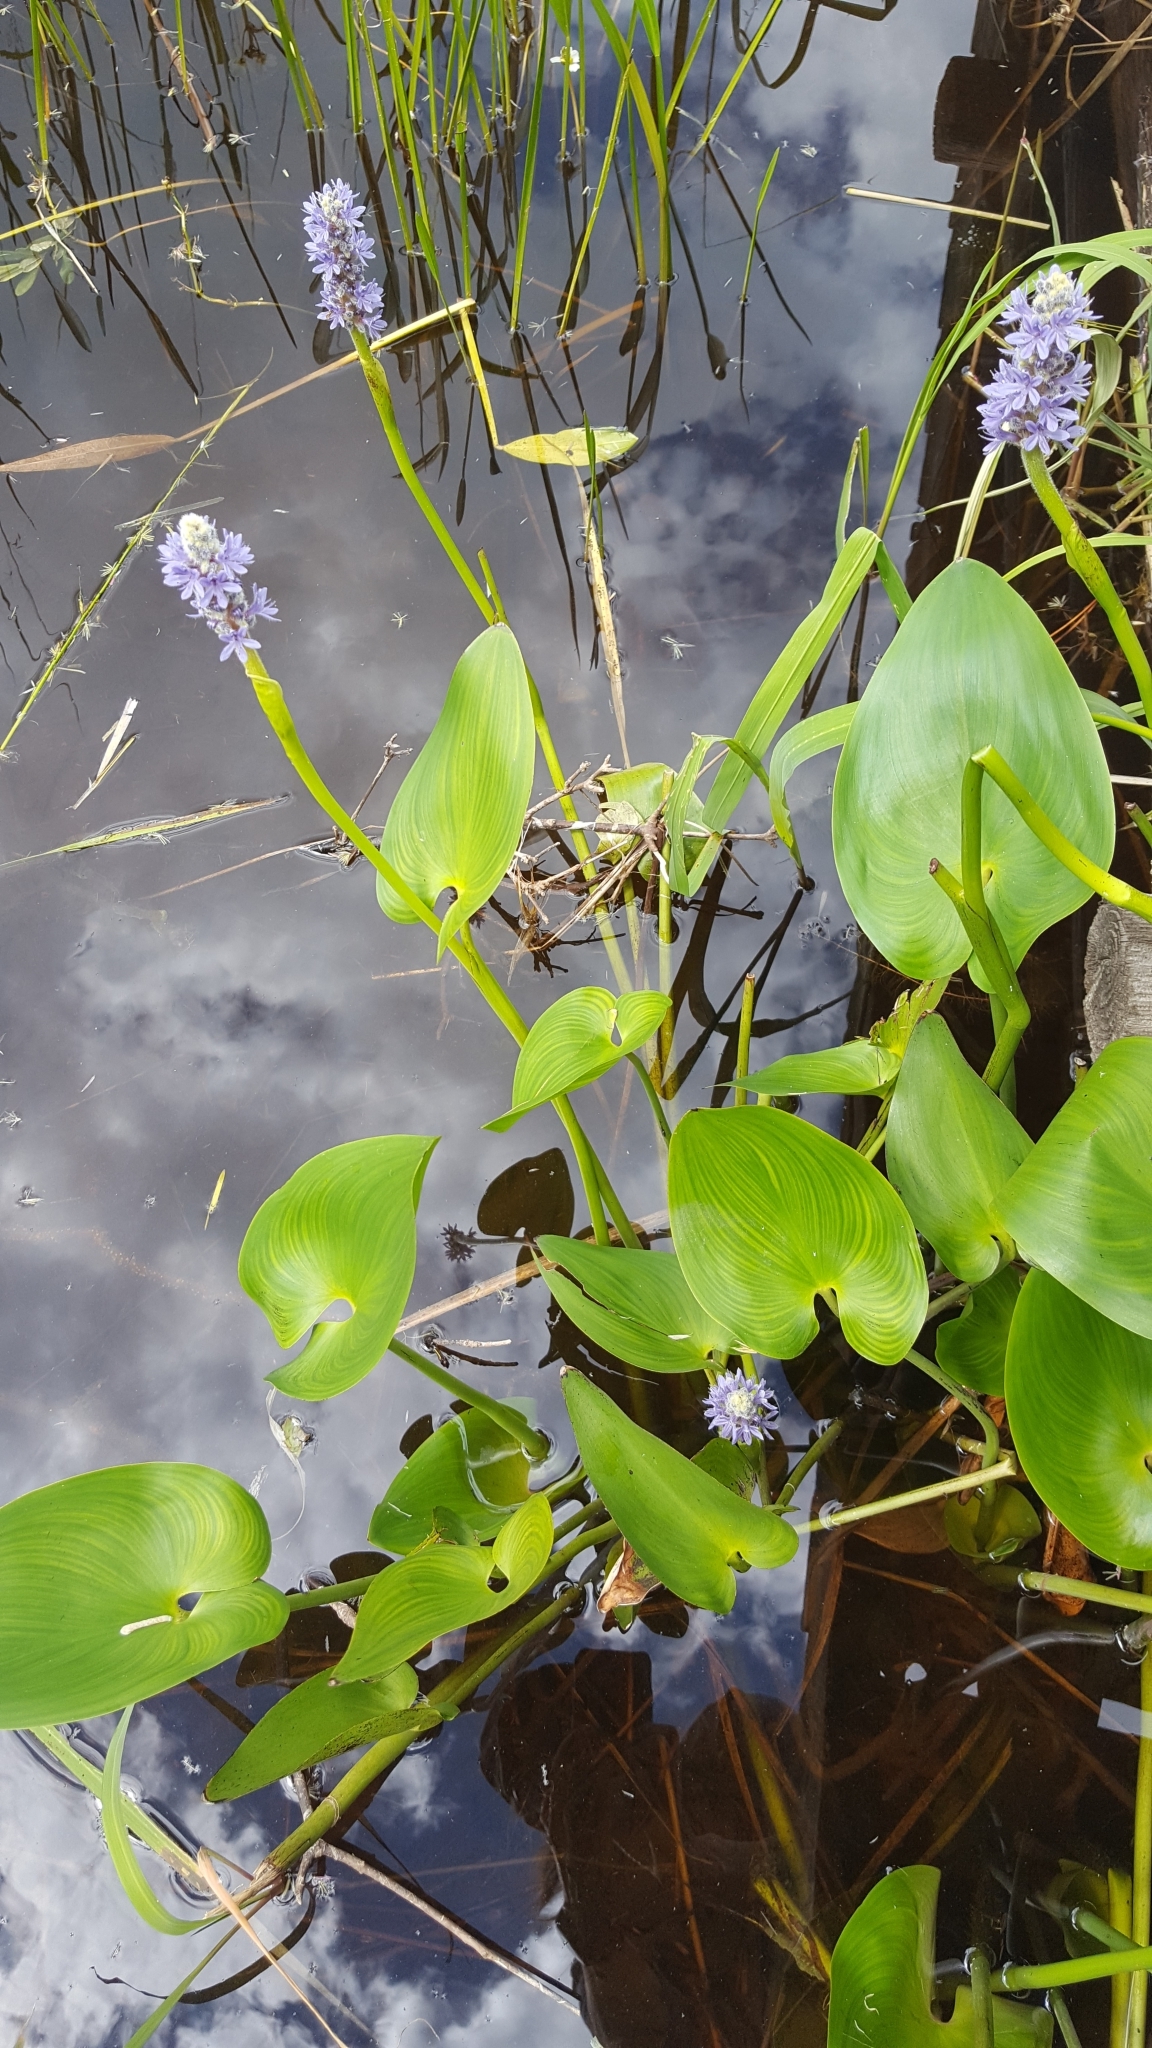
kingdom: Plantae
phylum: Tracheophyta
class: Liliopsida
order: Commelinales
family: Pontederiaceae
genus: Pontederia
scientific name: Pontederia cordata
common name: Pickerelweed
